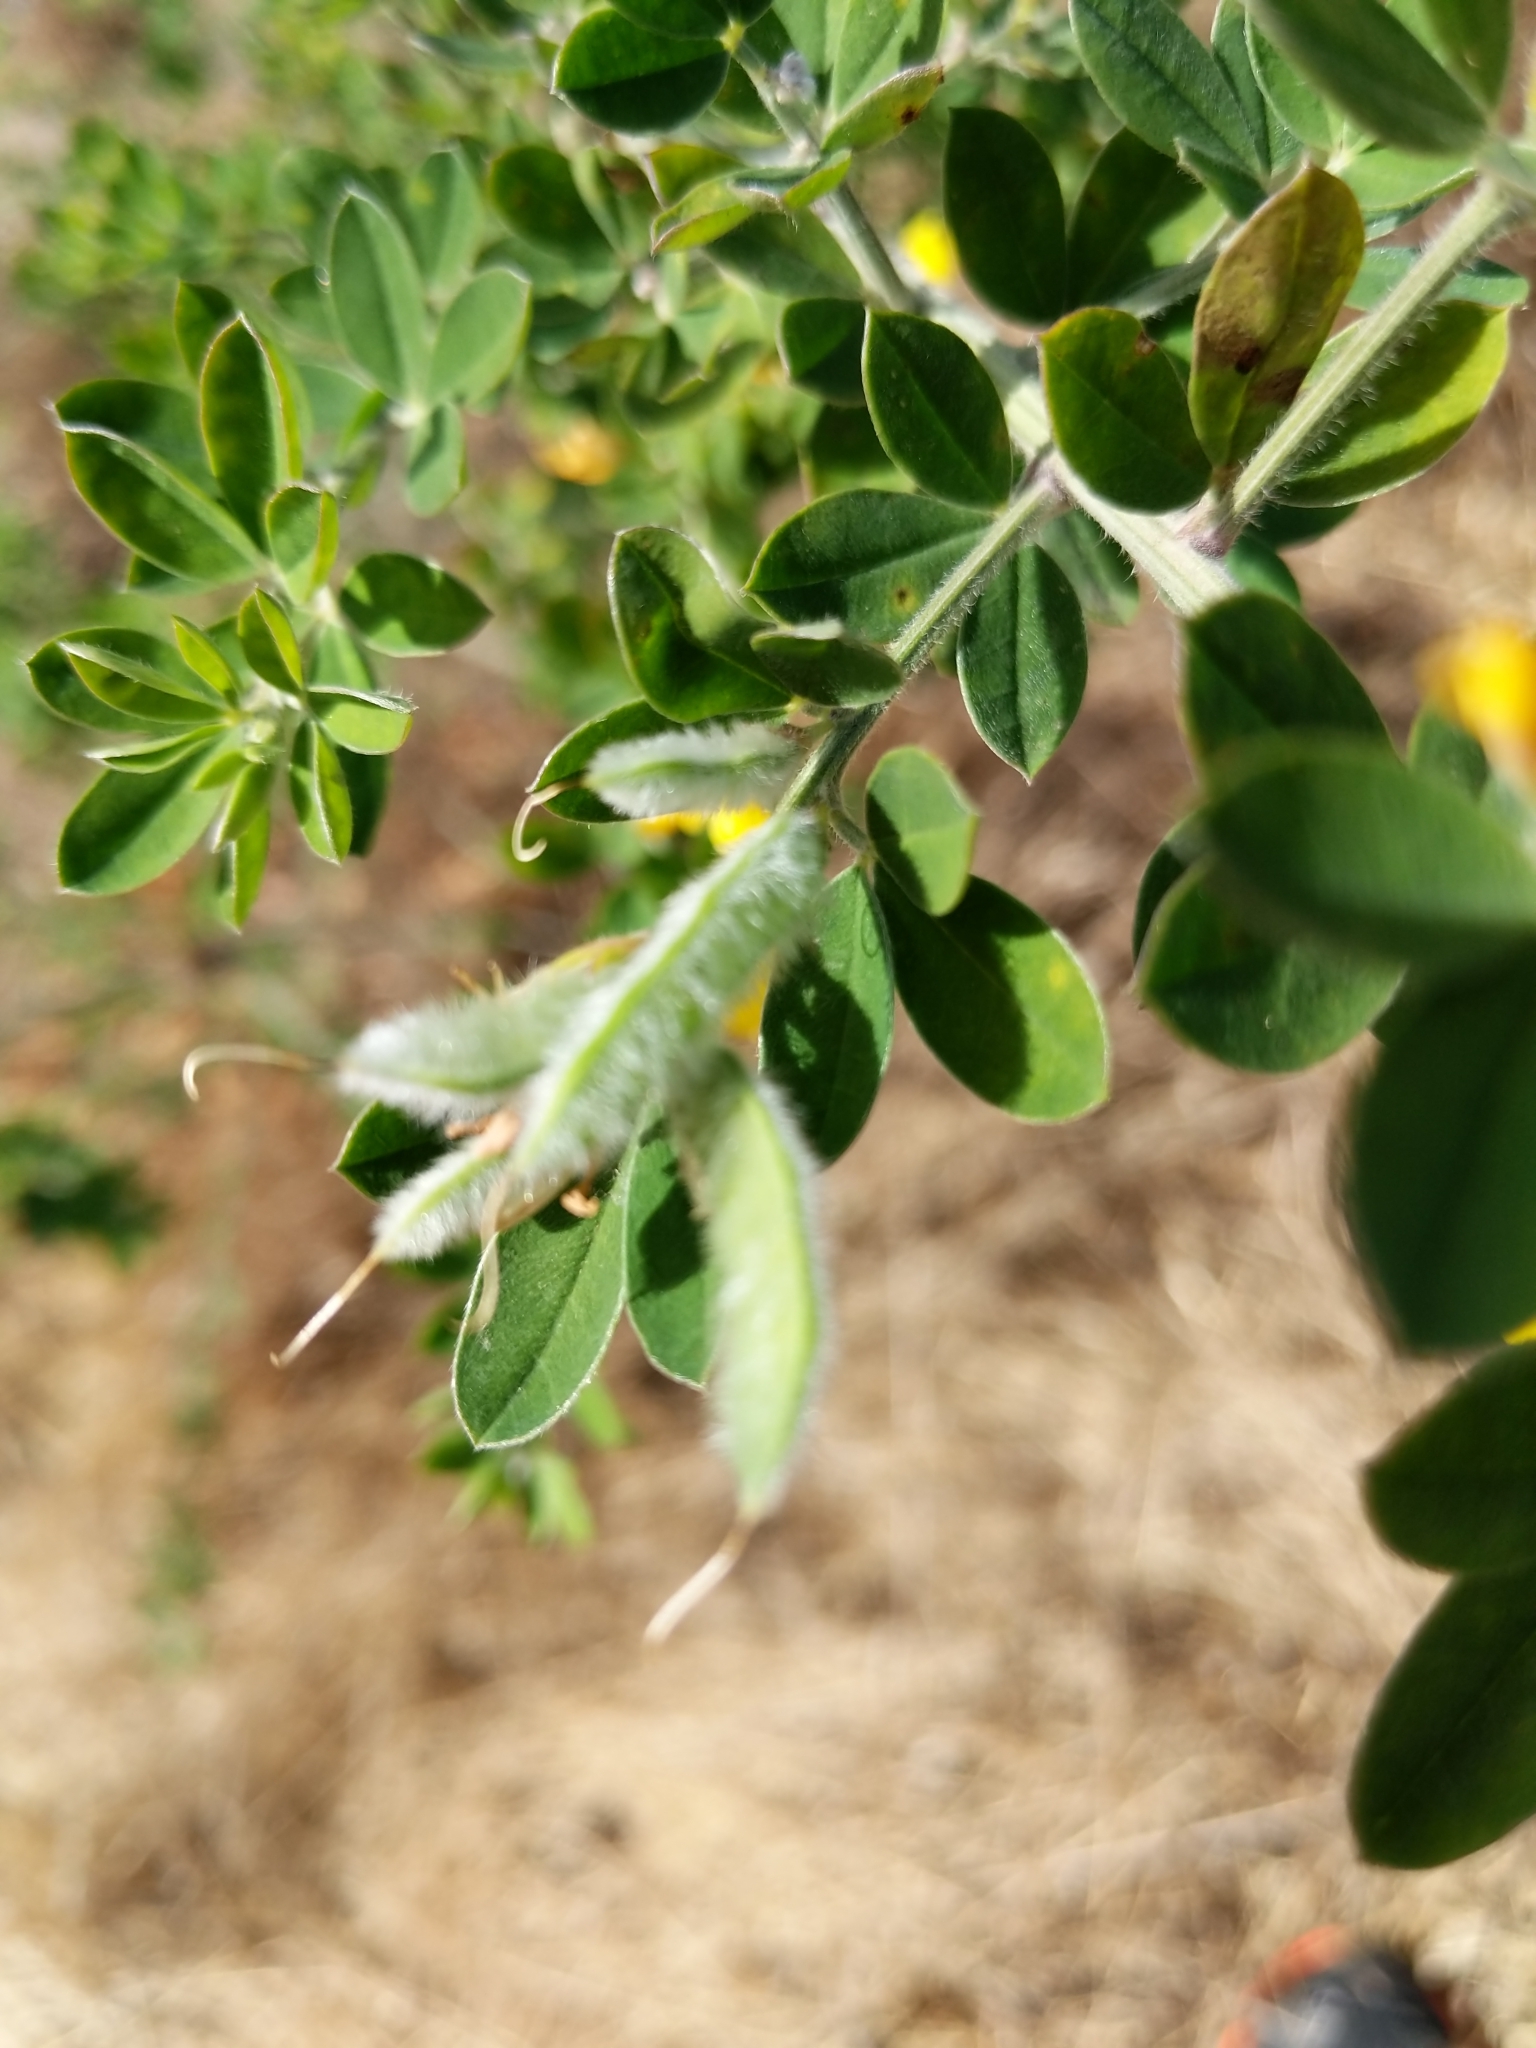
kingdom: Plantae
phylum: Tracheophyta
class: Magnoliopsida
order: Fabales
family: Fabaceae
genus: Genista
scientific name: Genista monspessulana
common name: Montpellier broom
